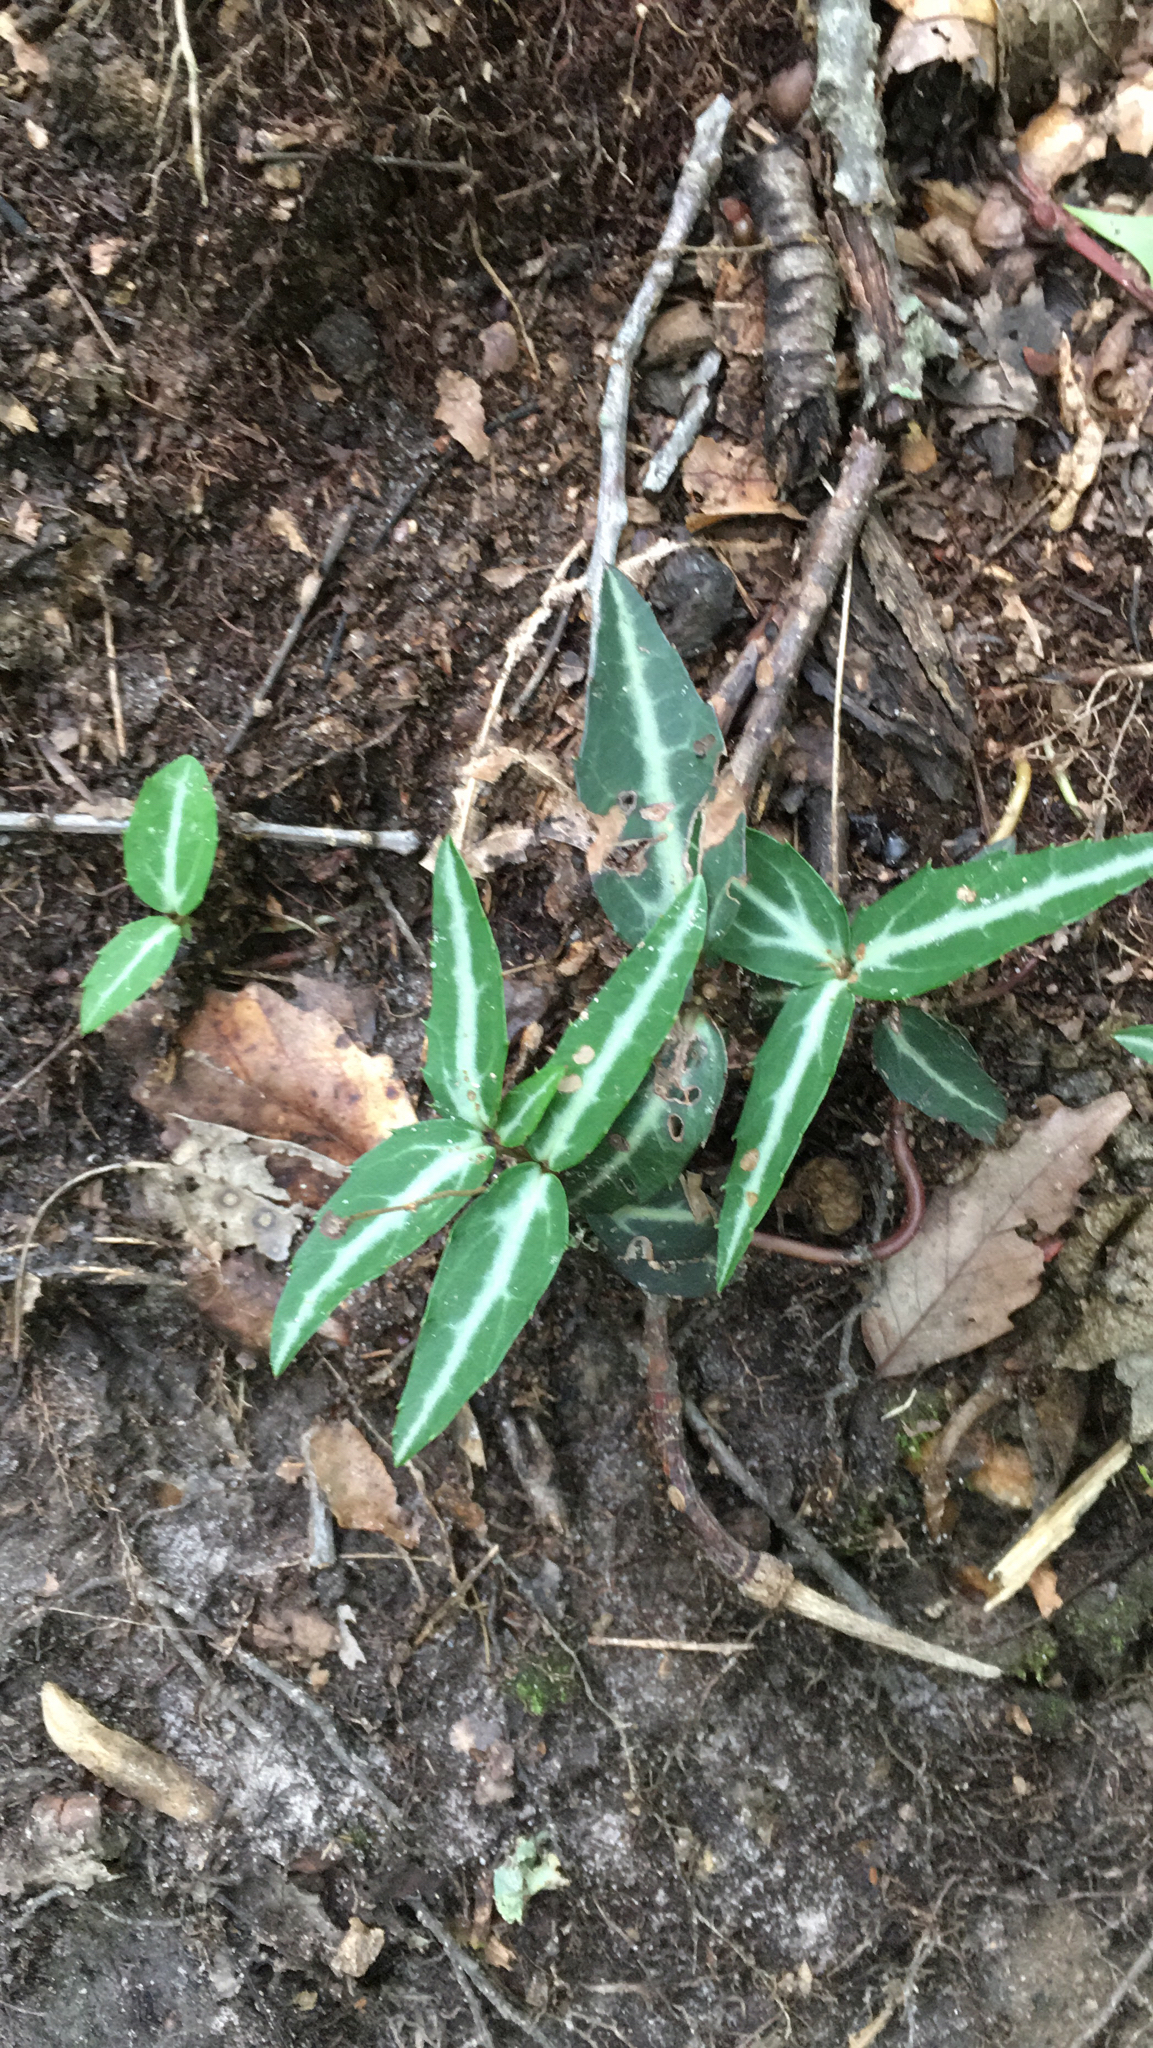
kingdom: Plantae
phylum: Tracheophyta
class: Magnoliopsida
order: Ericales
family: Ericaceae
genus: Chimaphila
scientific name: Chimaphila maculata
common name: Spotted pipsissewa
